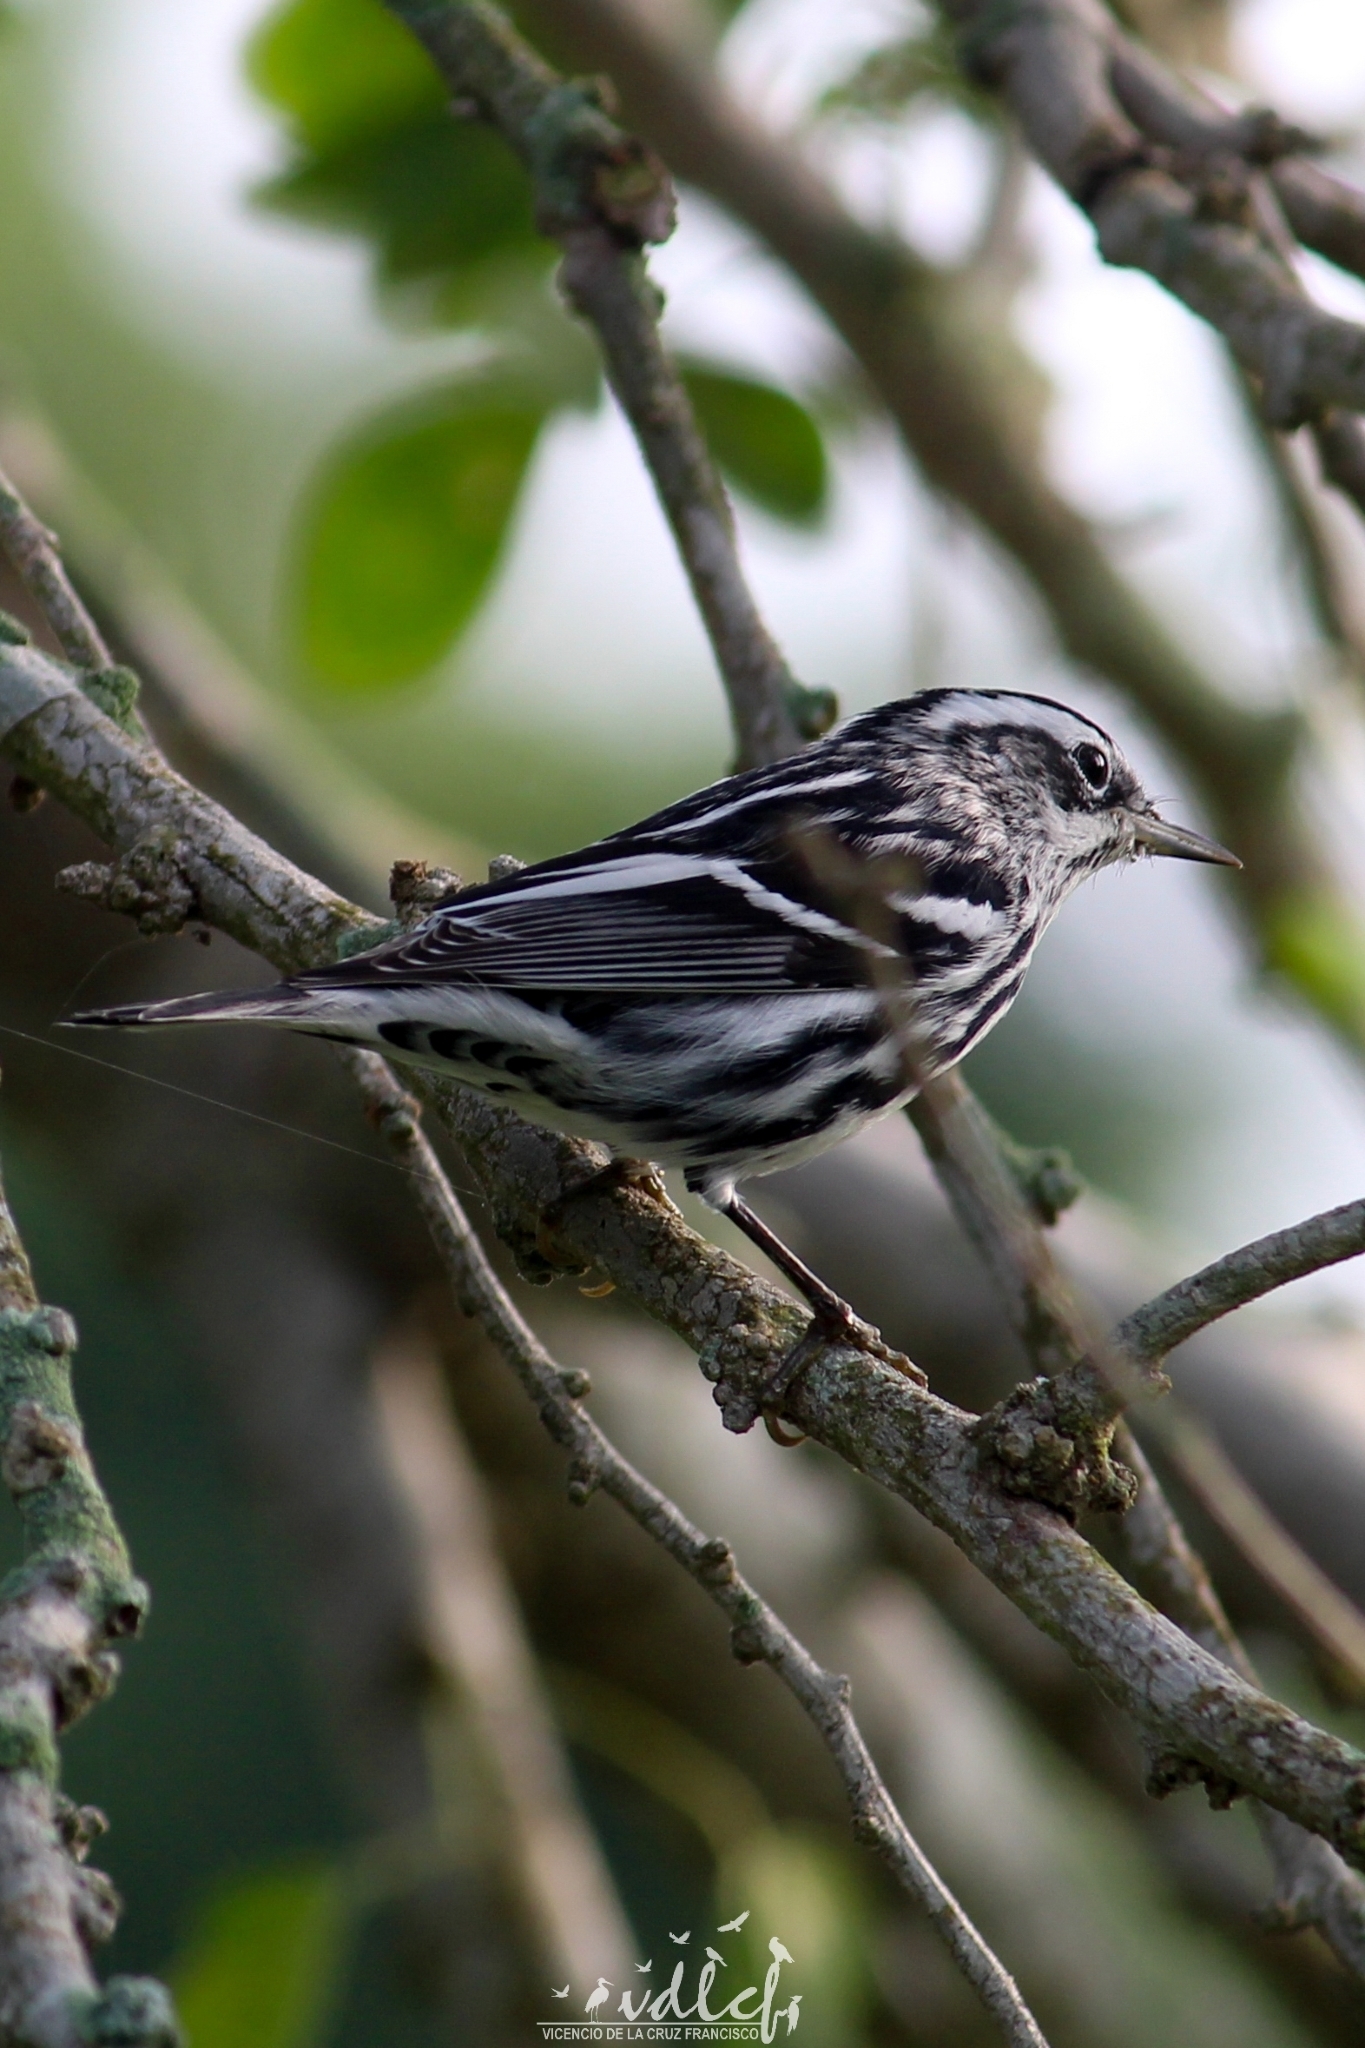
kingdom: Animalia
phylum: Chordata
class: Aves
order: Passeriformes
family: Parulidae
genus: Mniotilta
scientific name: Mniotilta varia
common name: Black-and-white warbler
